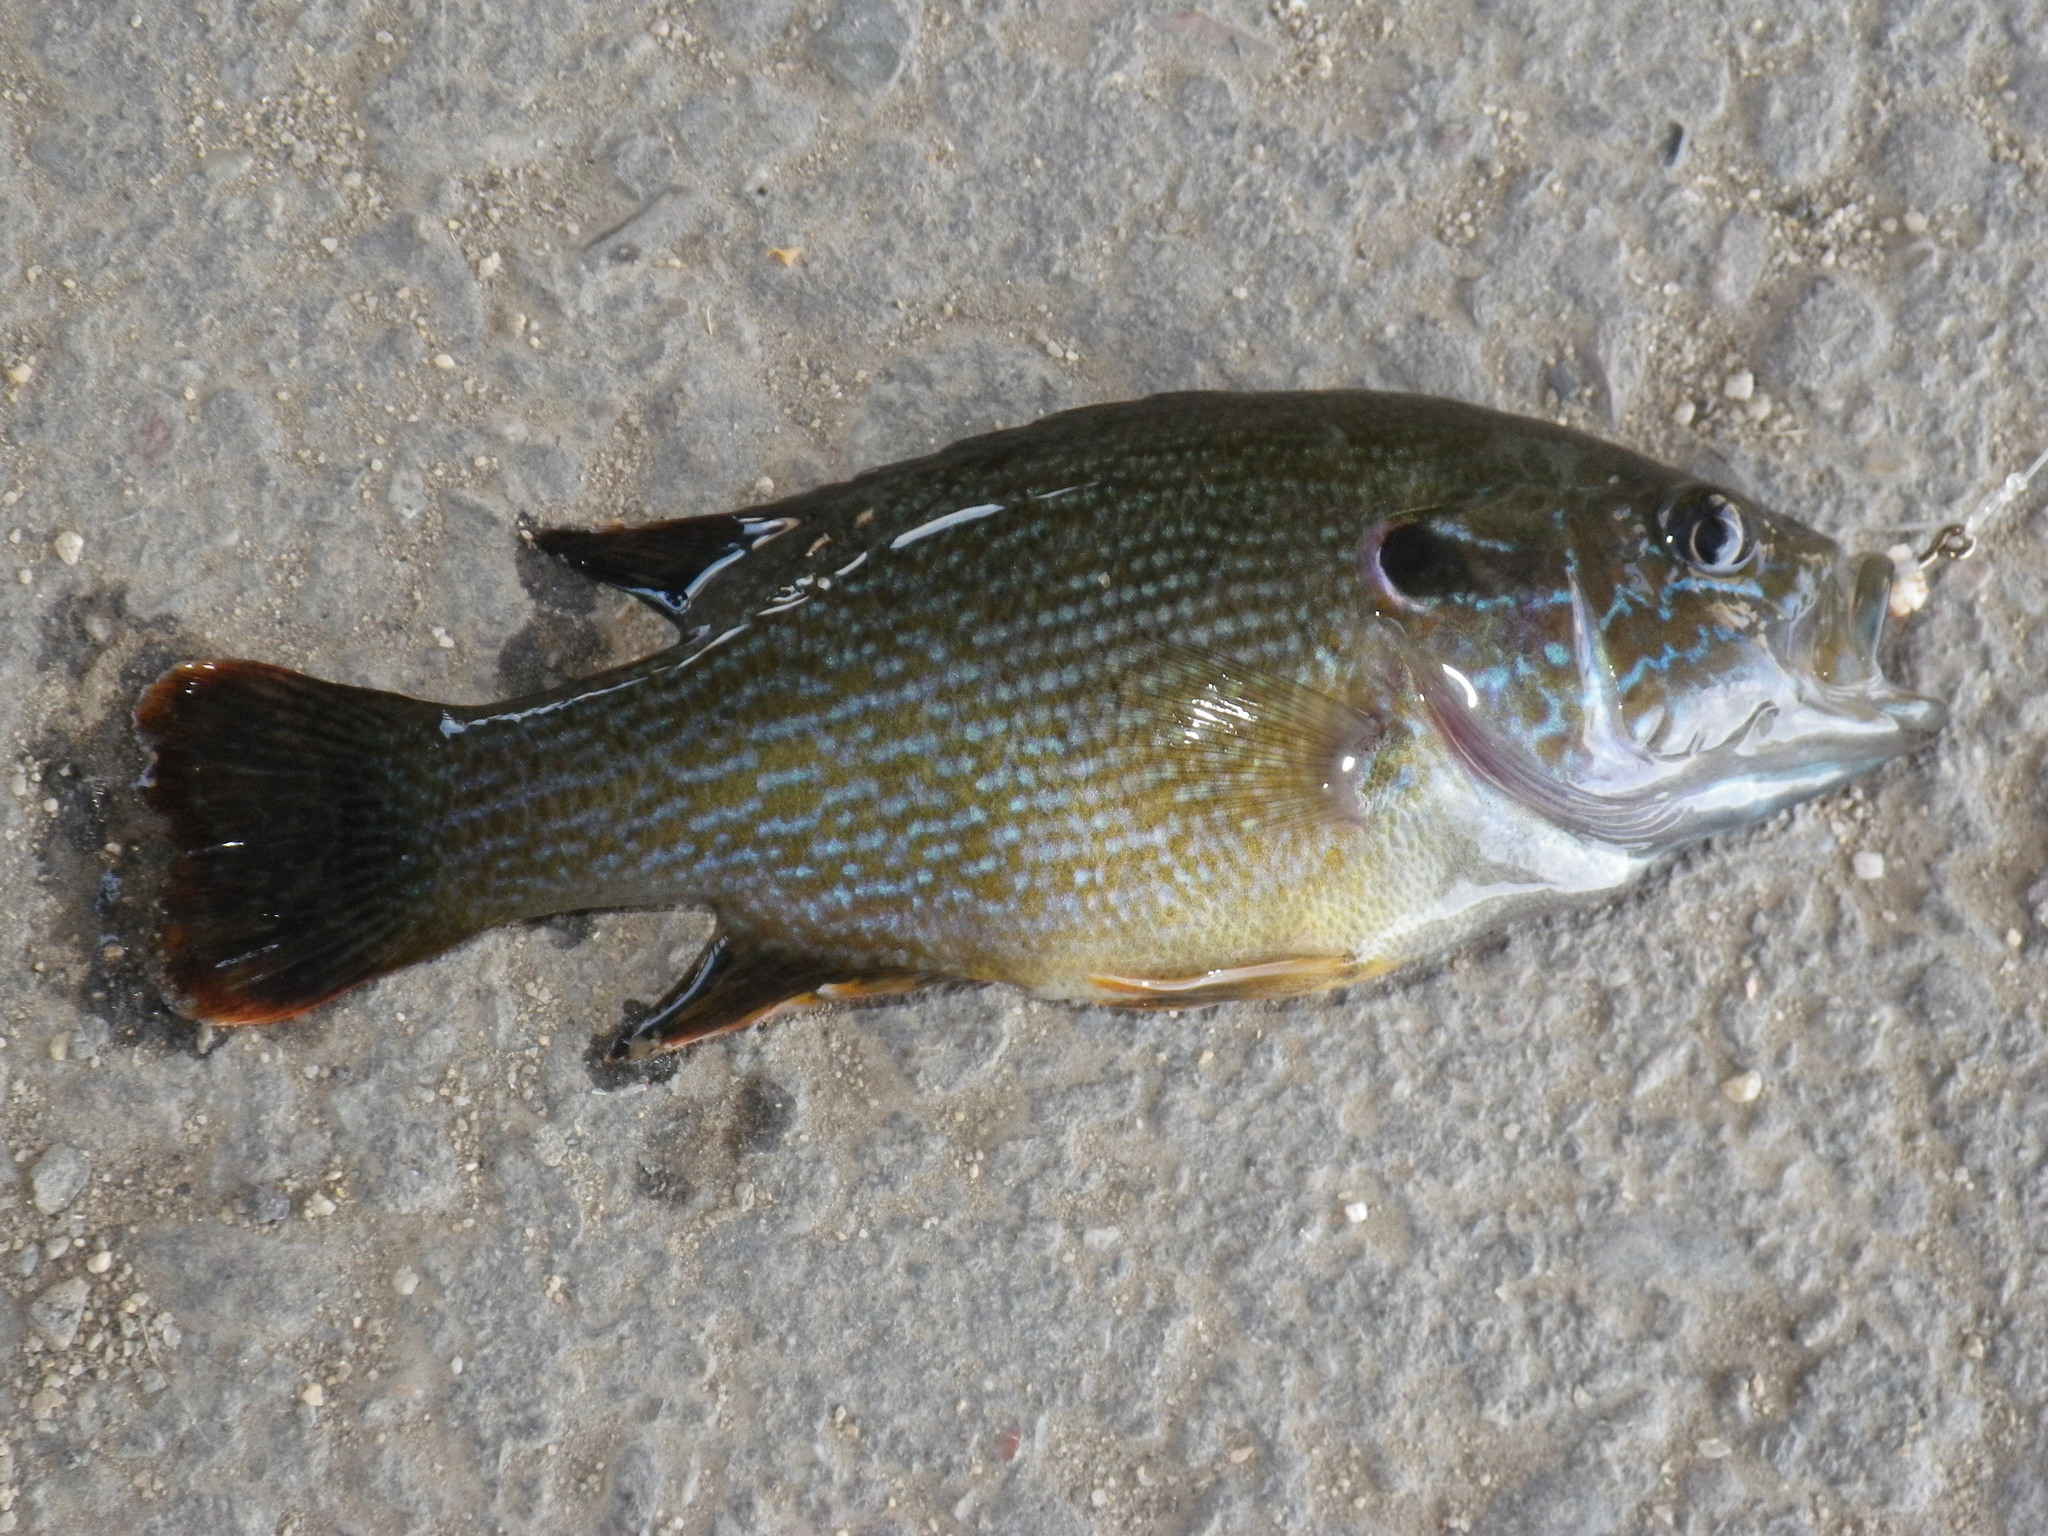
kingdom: Animalia
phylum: Chordata
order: Perciformes
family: Centrarchidae
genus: Lepomis
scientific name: Lepomis cyanellus
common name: Green sunfish
